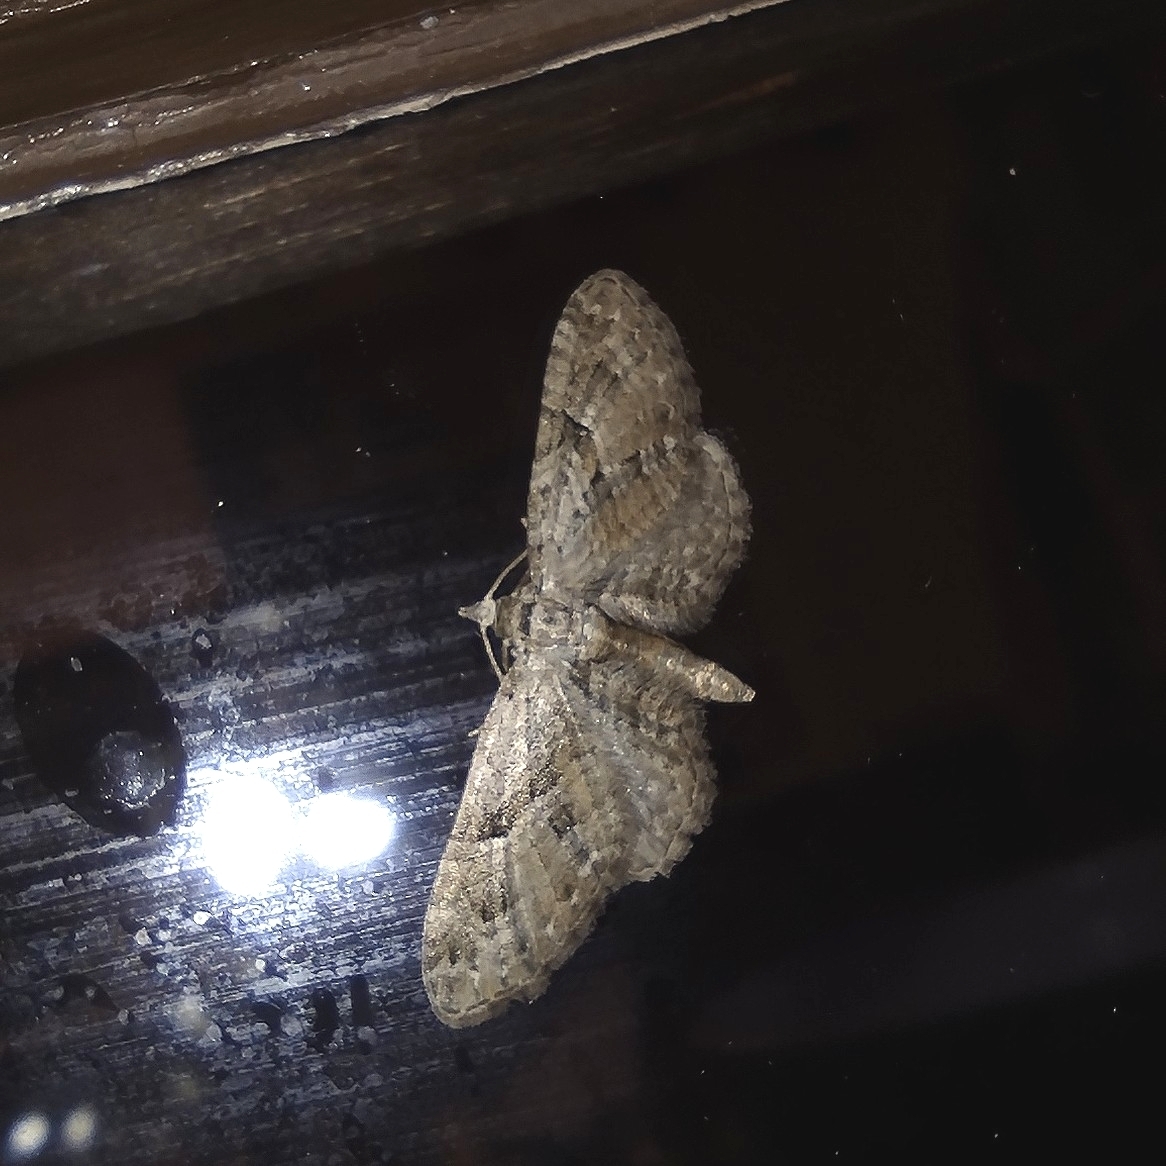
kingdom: Animalia
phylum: Arthropoda
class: Insecta
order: Lepidoptera
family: Geometridae
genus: Eupithecia
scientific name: Eupithecia pusillata
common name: Juniper pug
